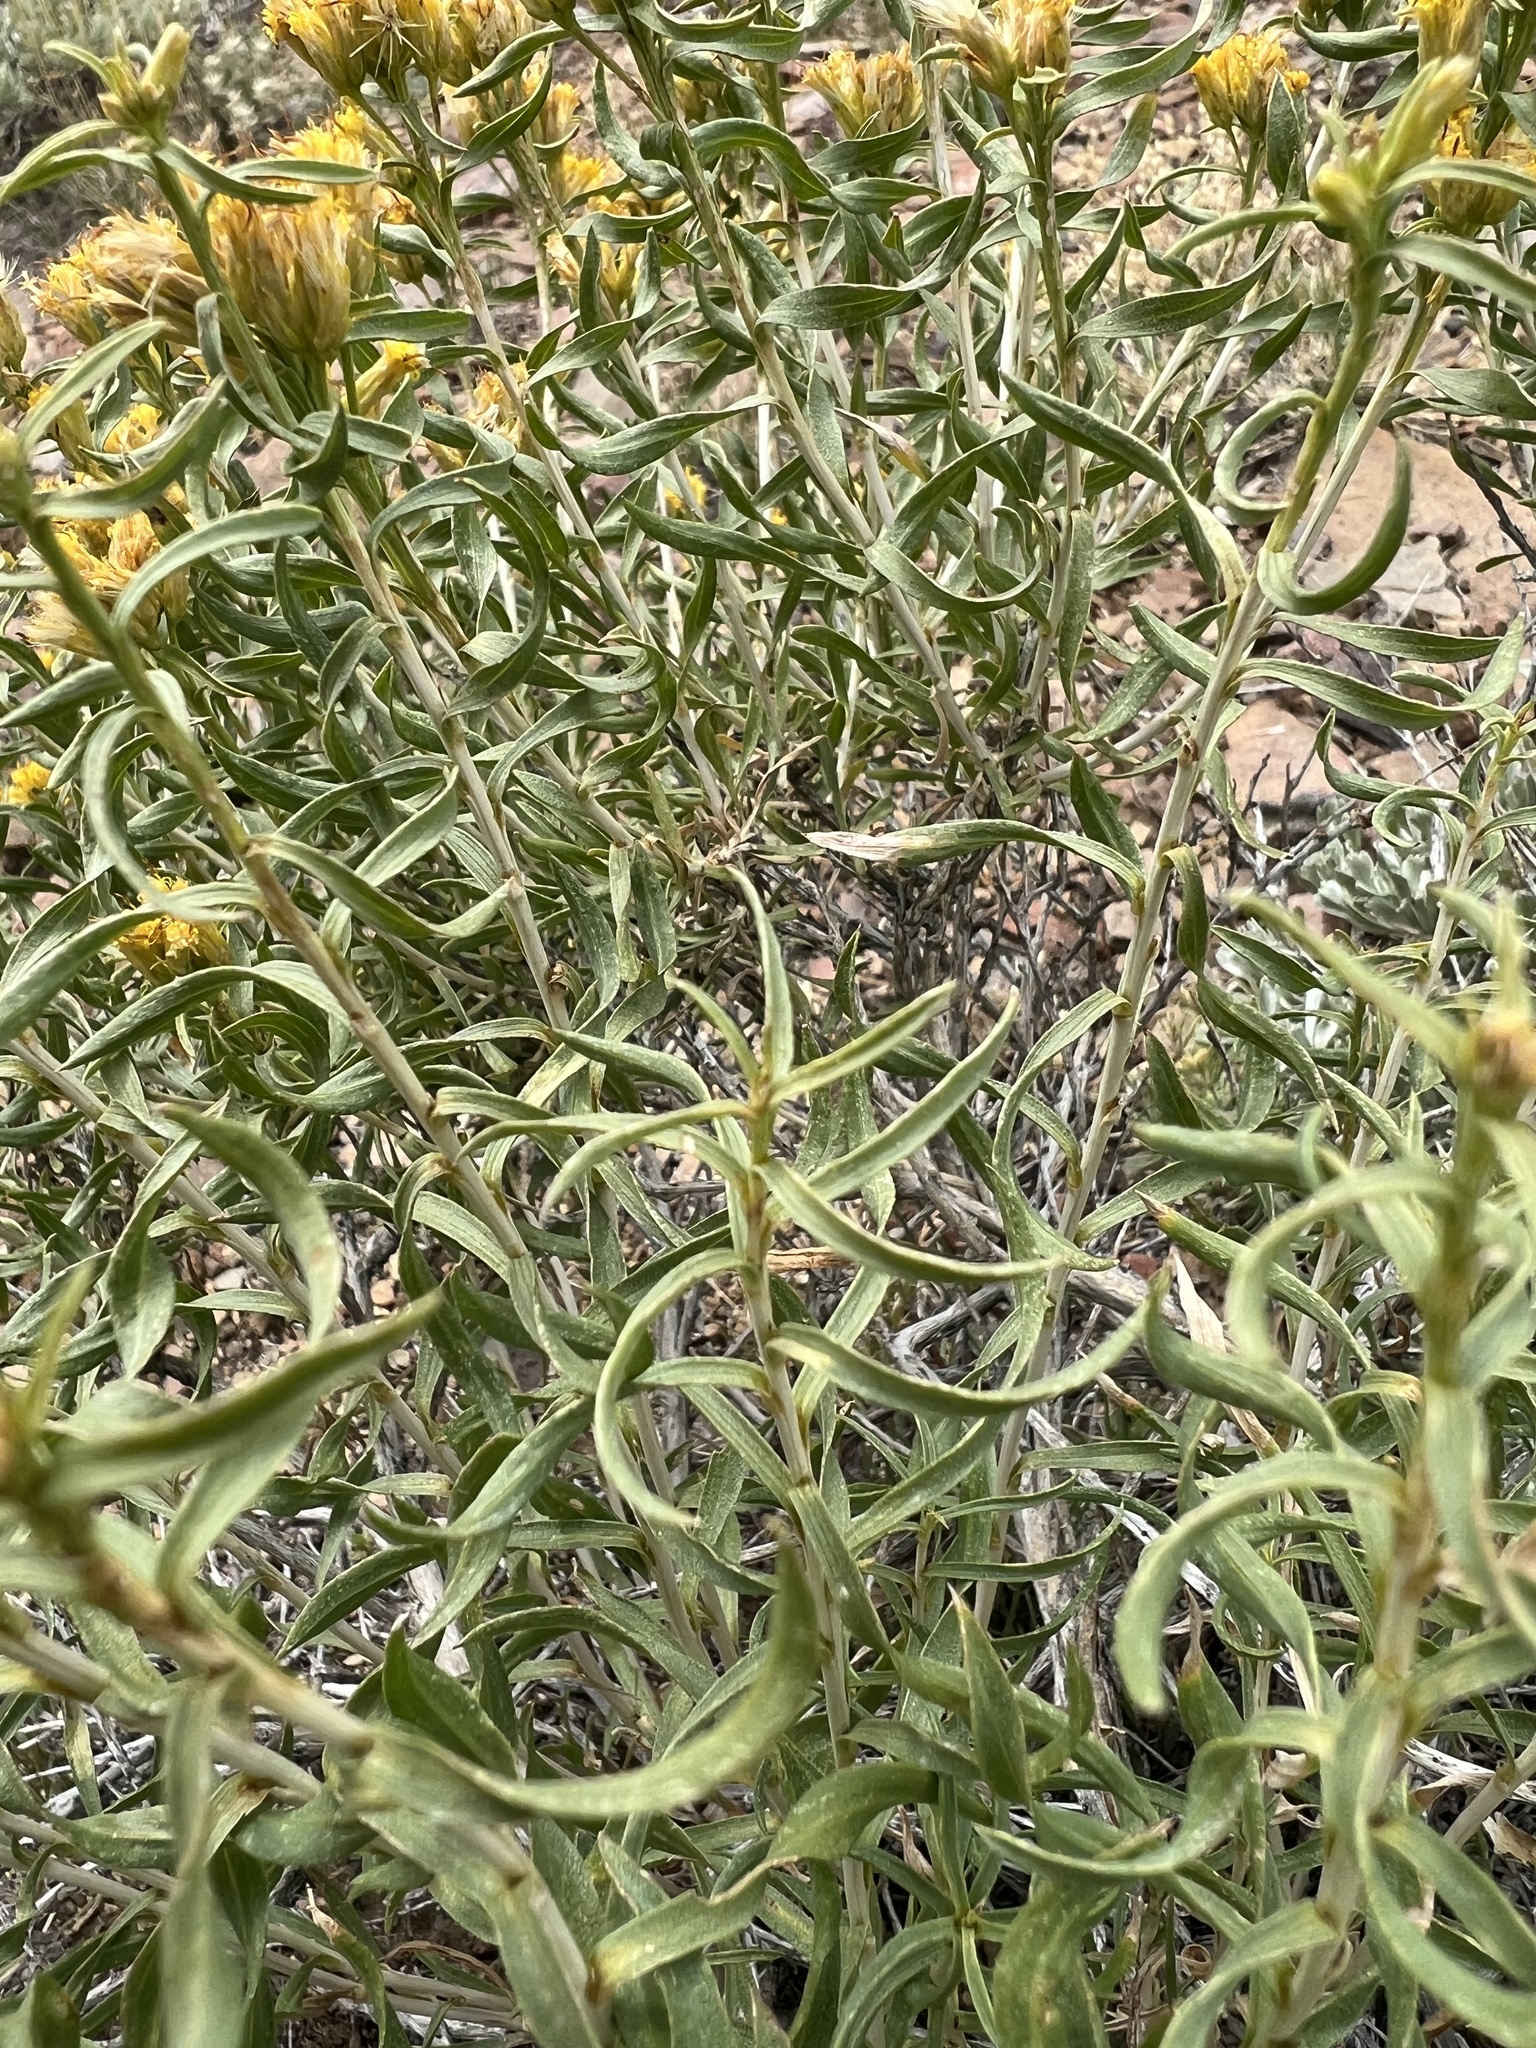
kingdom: Plantae
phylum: Tracheophyta
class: Magnoliopsida
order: Asterales
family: Asteraceae
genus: Chrysothamnus
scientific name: Chrysothamnus viscidiflorus
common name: Yellow rabbitbrush
